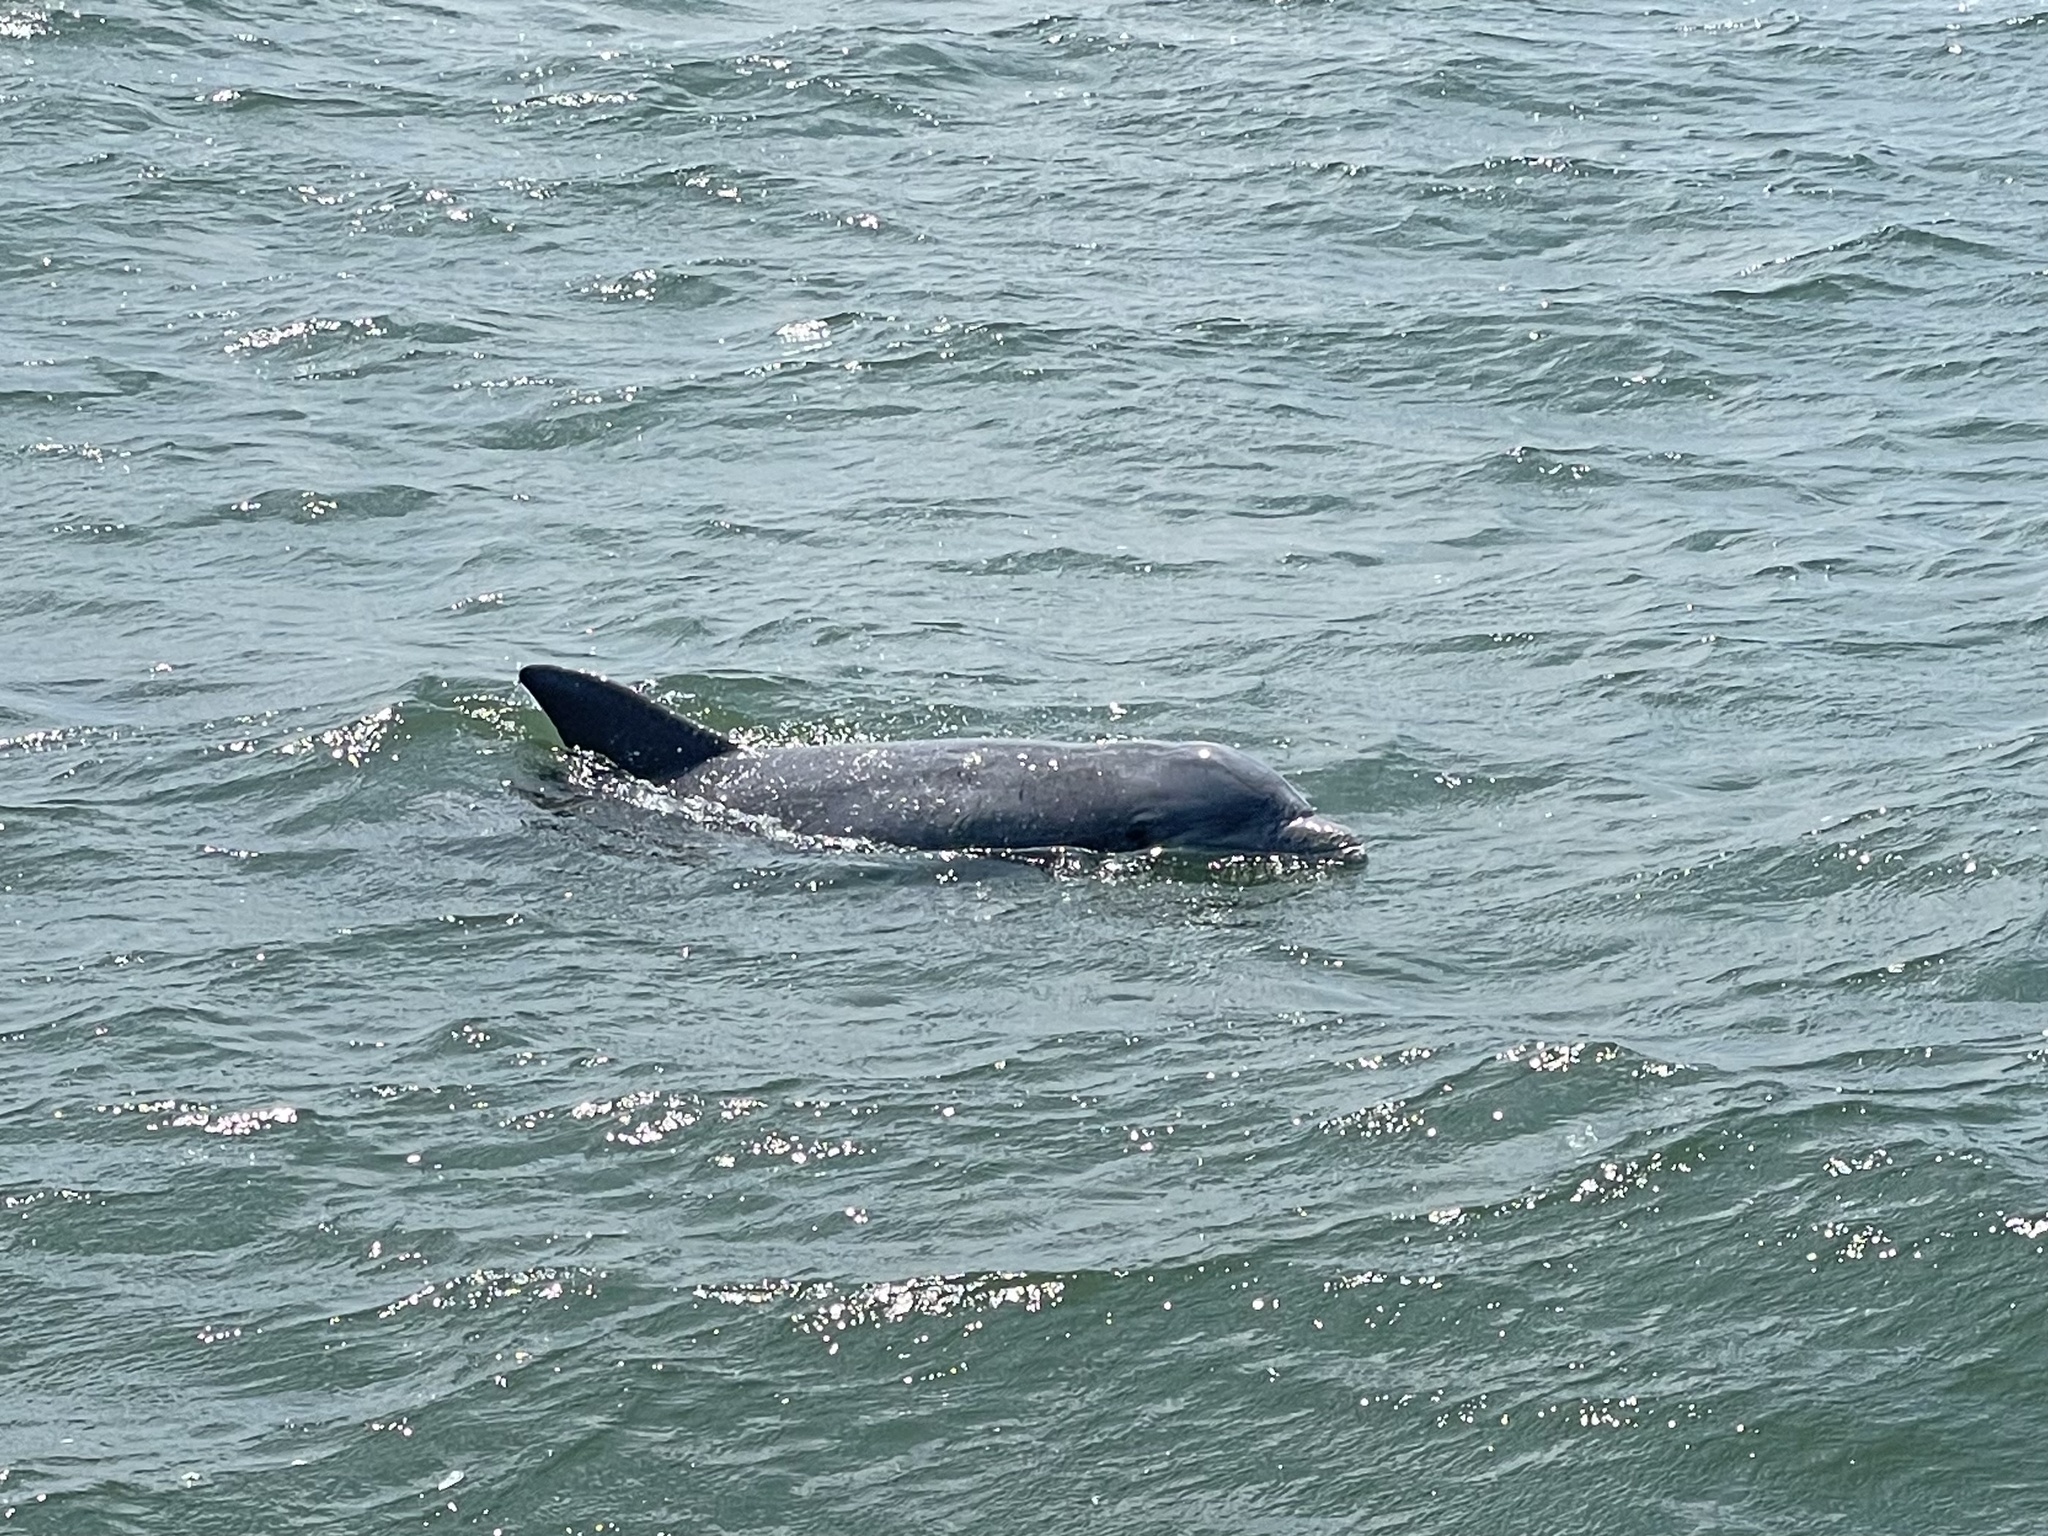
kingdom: Animalia
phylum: Chordata
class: Mammalia
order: Cetacea
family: Delphinidae
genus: Tursiops
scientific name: Tursiops truncatus
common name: Bottlenose dolphin
